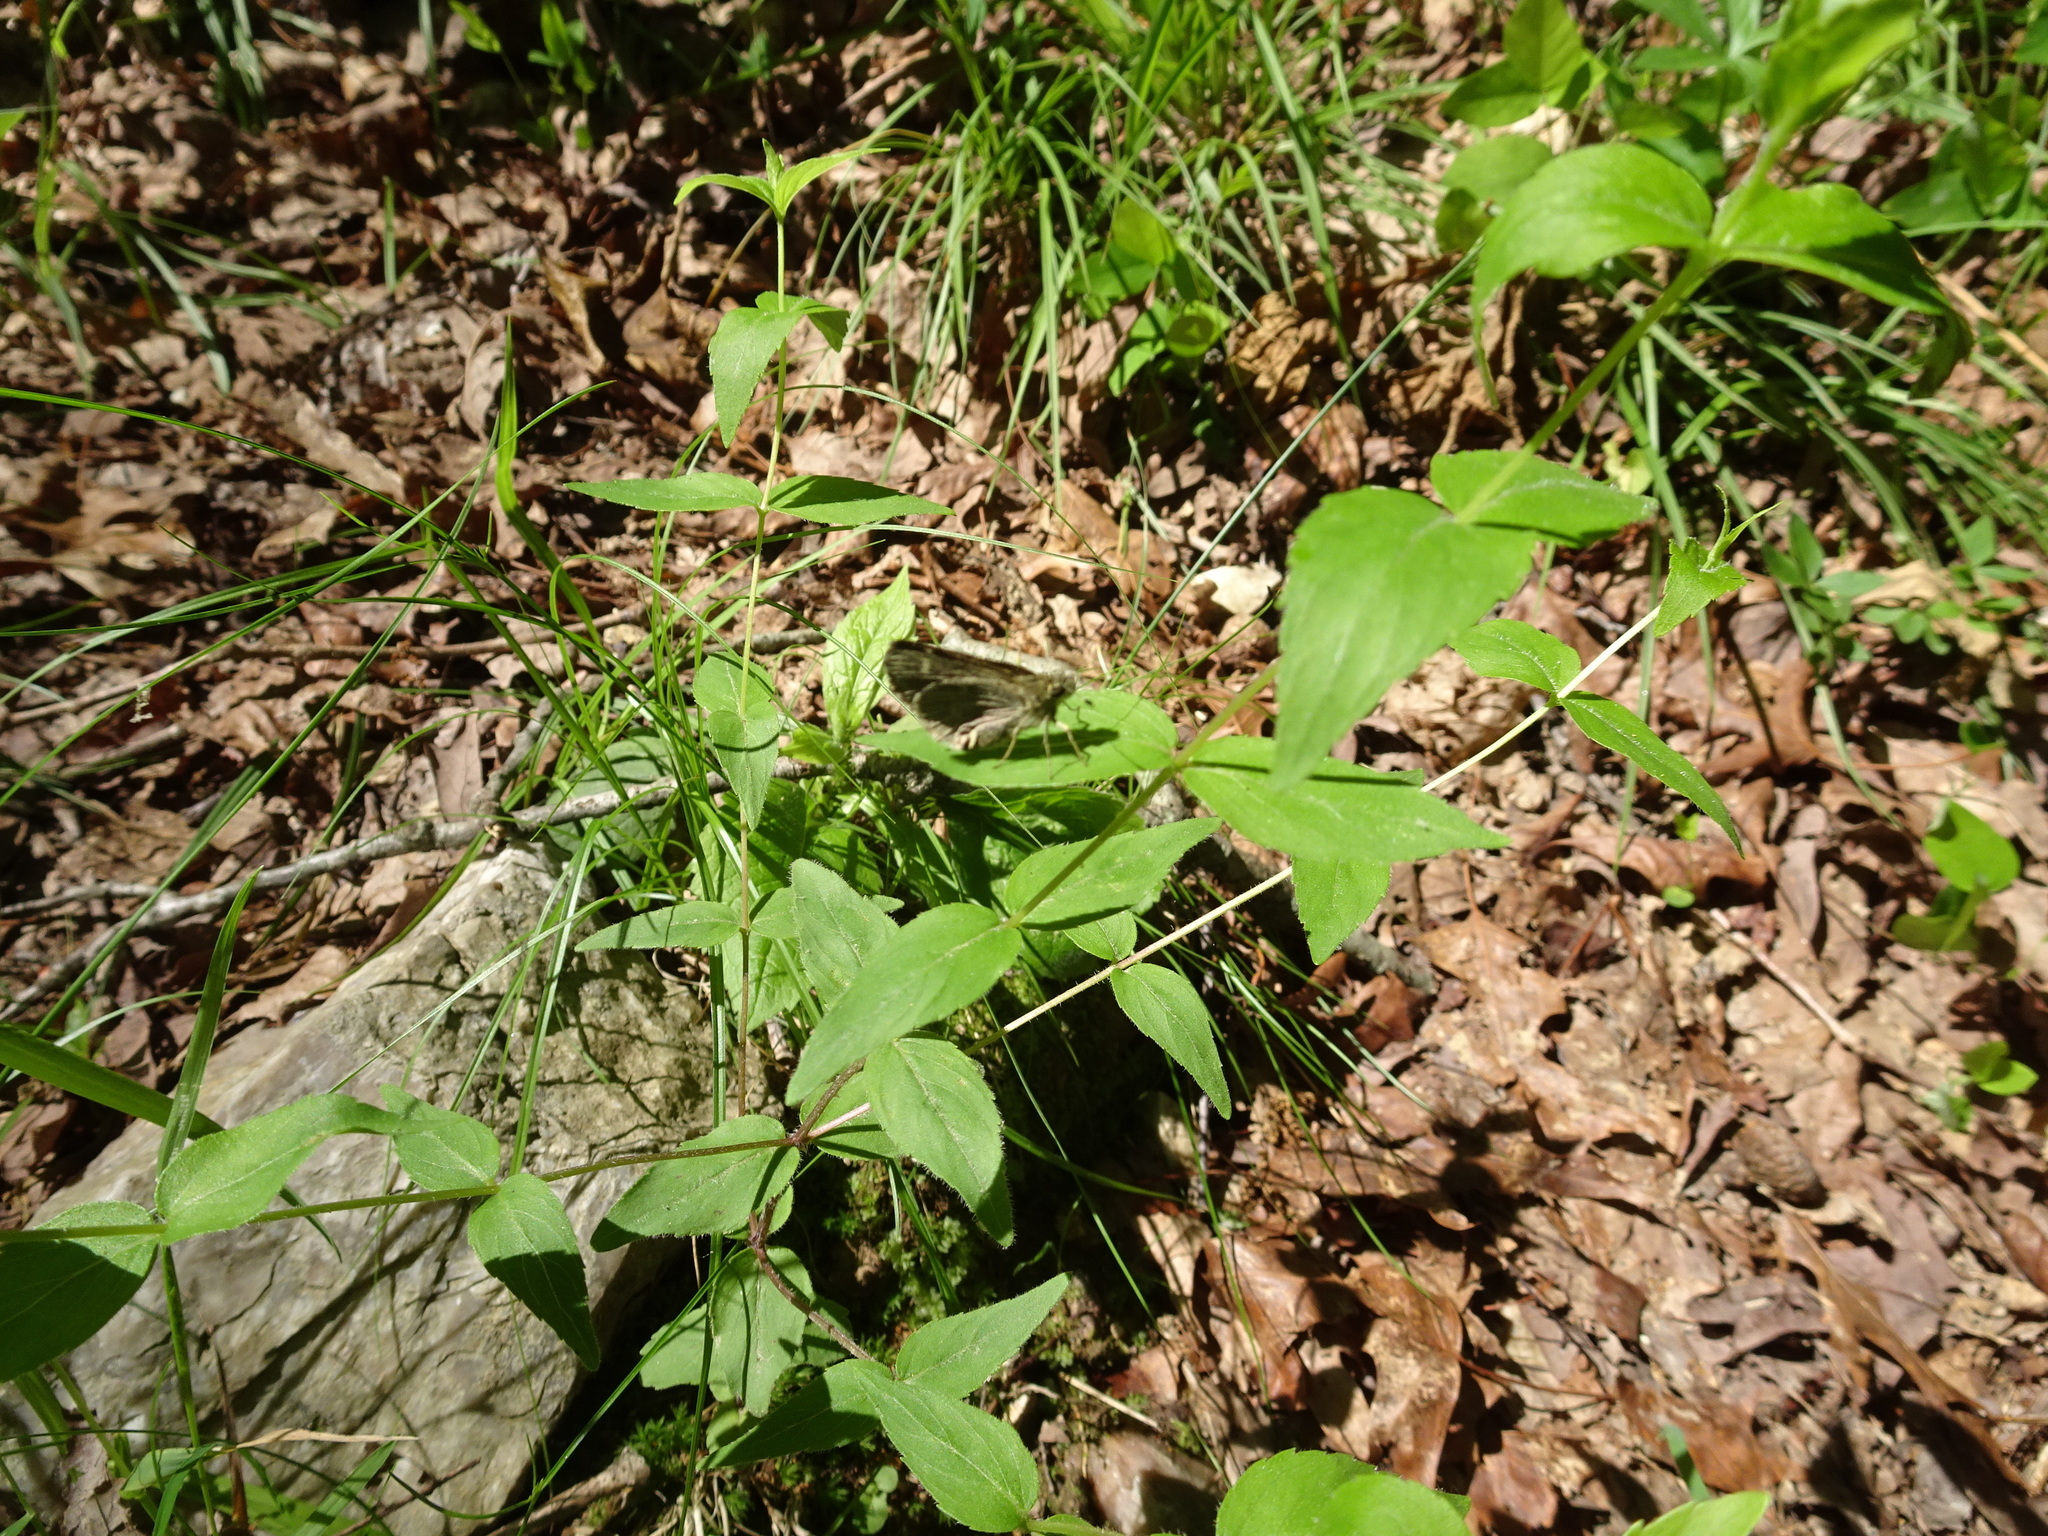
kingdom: Plantae
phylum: Tracheophyta
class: Magnoliopsida
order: Lamiales
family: Lamiaceae
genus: Cunila
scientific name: Cunila origanoides
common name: American dittany
